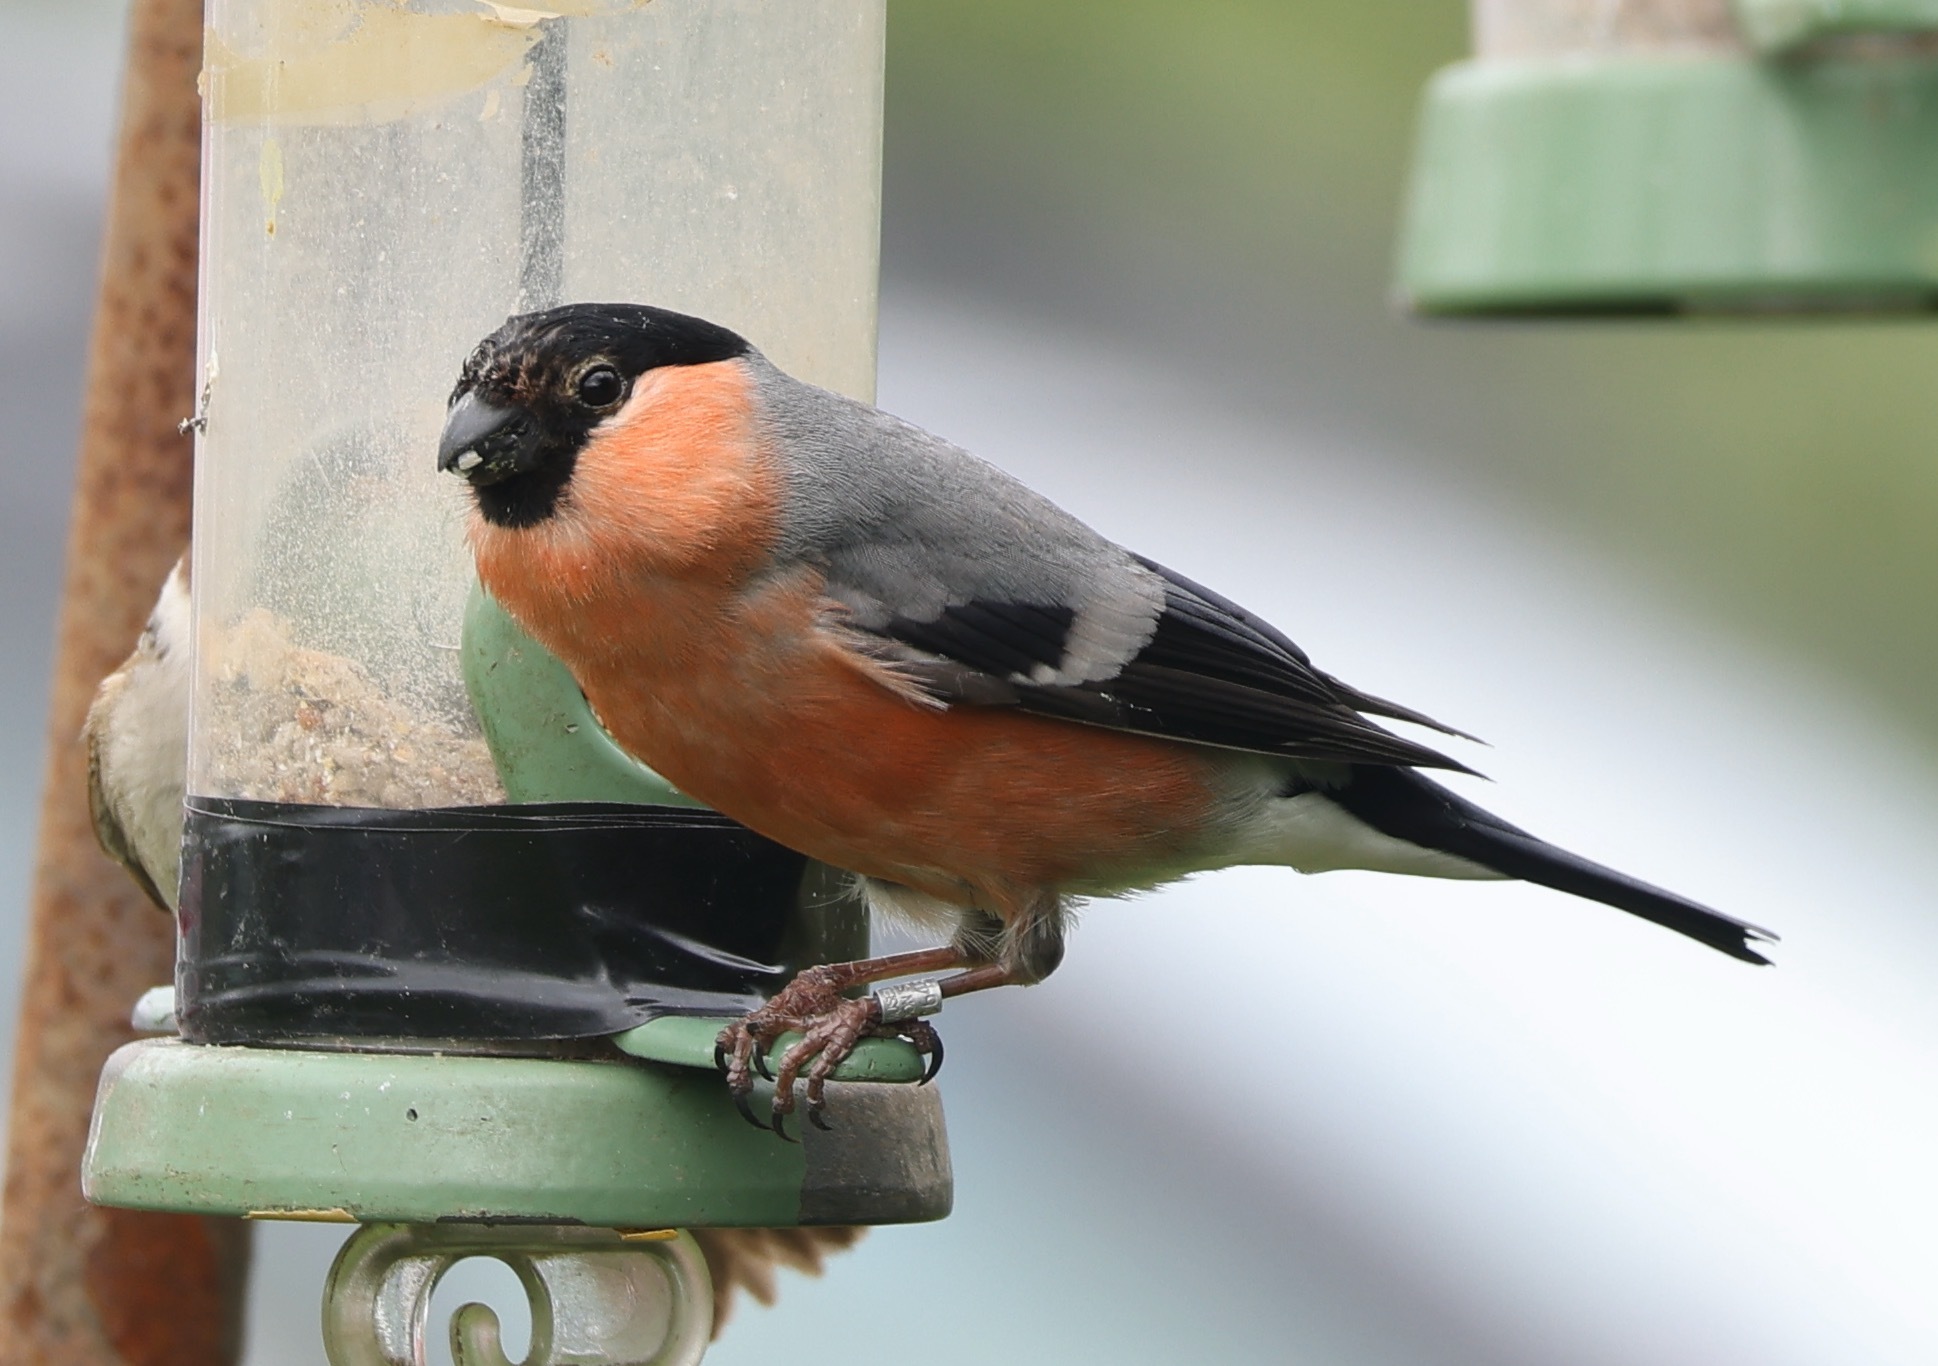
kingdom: Animalia
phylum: Chordata
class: Aves
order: Passeriformes
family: Fringillidae
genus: Pyrrhula
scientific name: Pyrrhula pyrrhula
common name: Eurasian bullfinch
